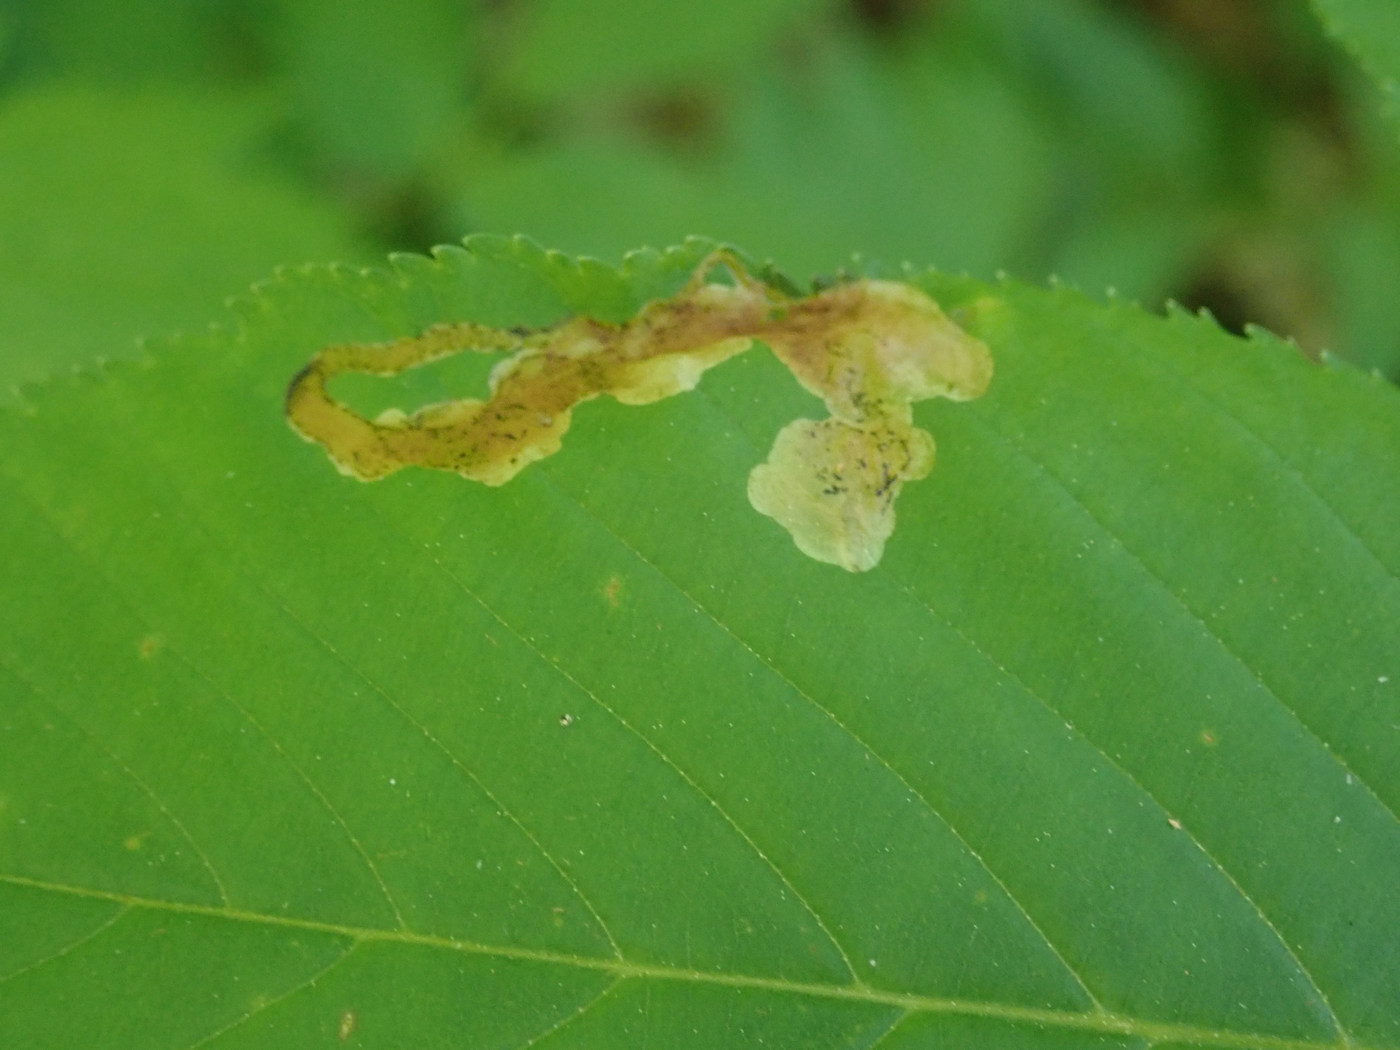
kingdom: Animalia
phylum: Arthropoda
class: Insecta
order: Diptera
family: Agromyzidae
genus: Phytomyza
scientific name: Phytomyza aesculi
